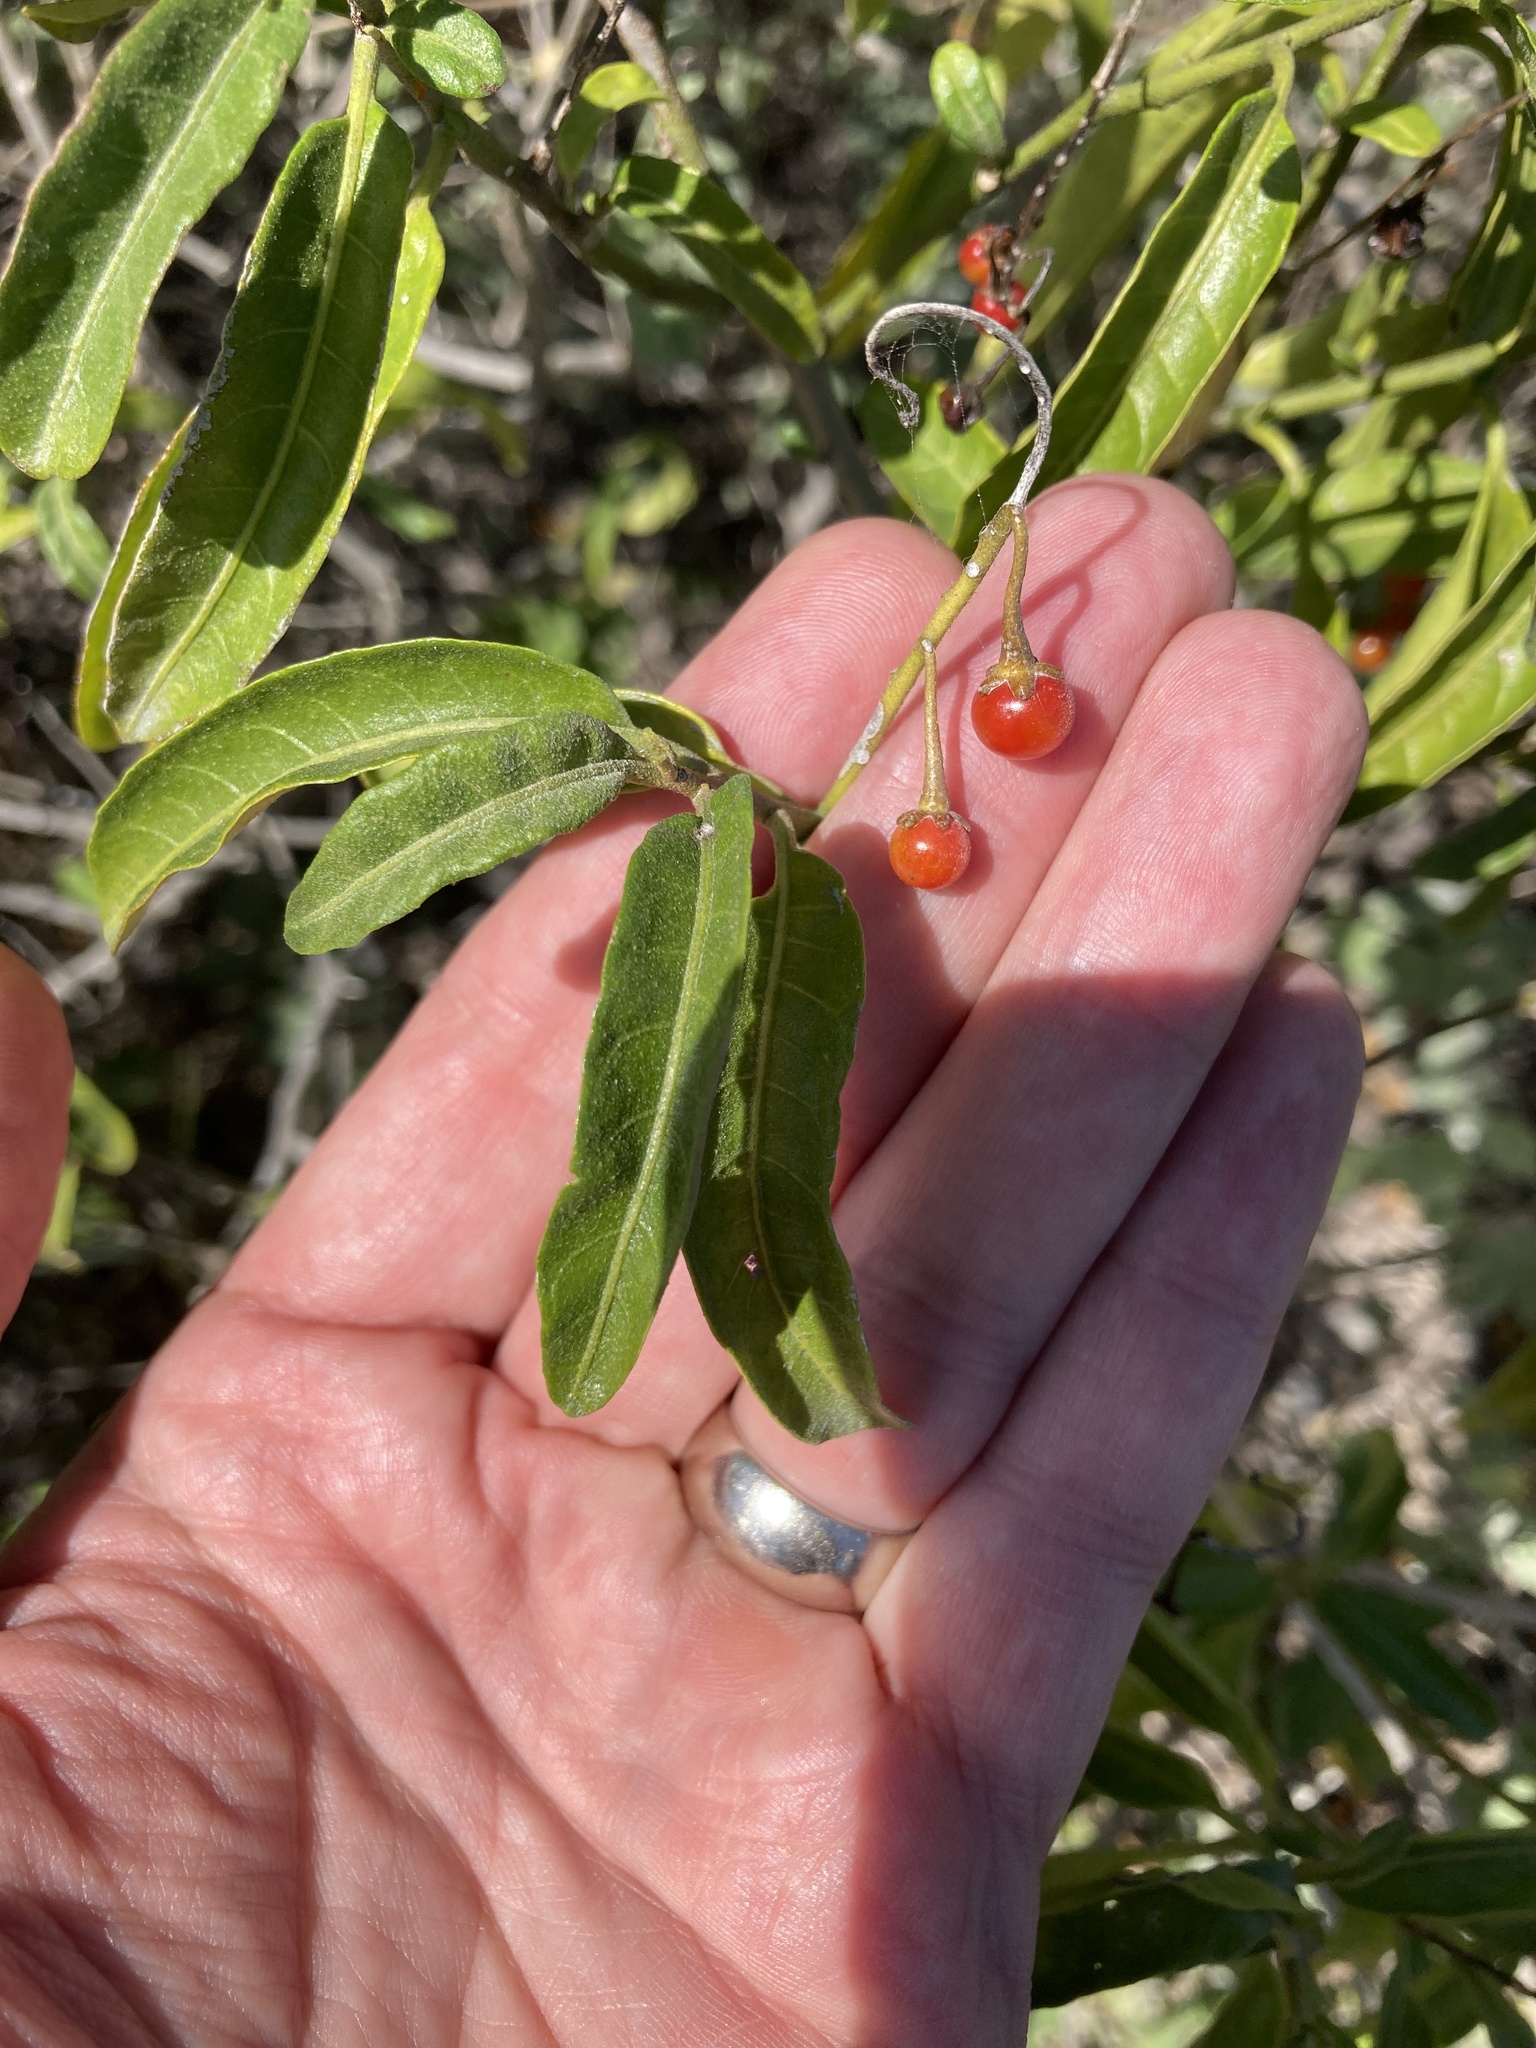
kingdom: Plantae
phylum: Tracheophyta
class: Magnoliopsida
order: Solanales
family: Solanaceae
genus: Solanum
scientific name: Solanum bahamense
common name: Canker-berry
